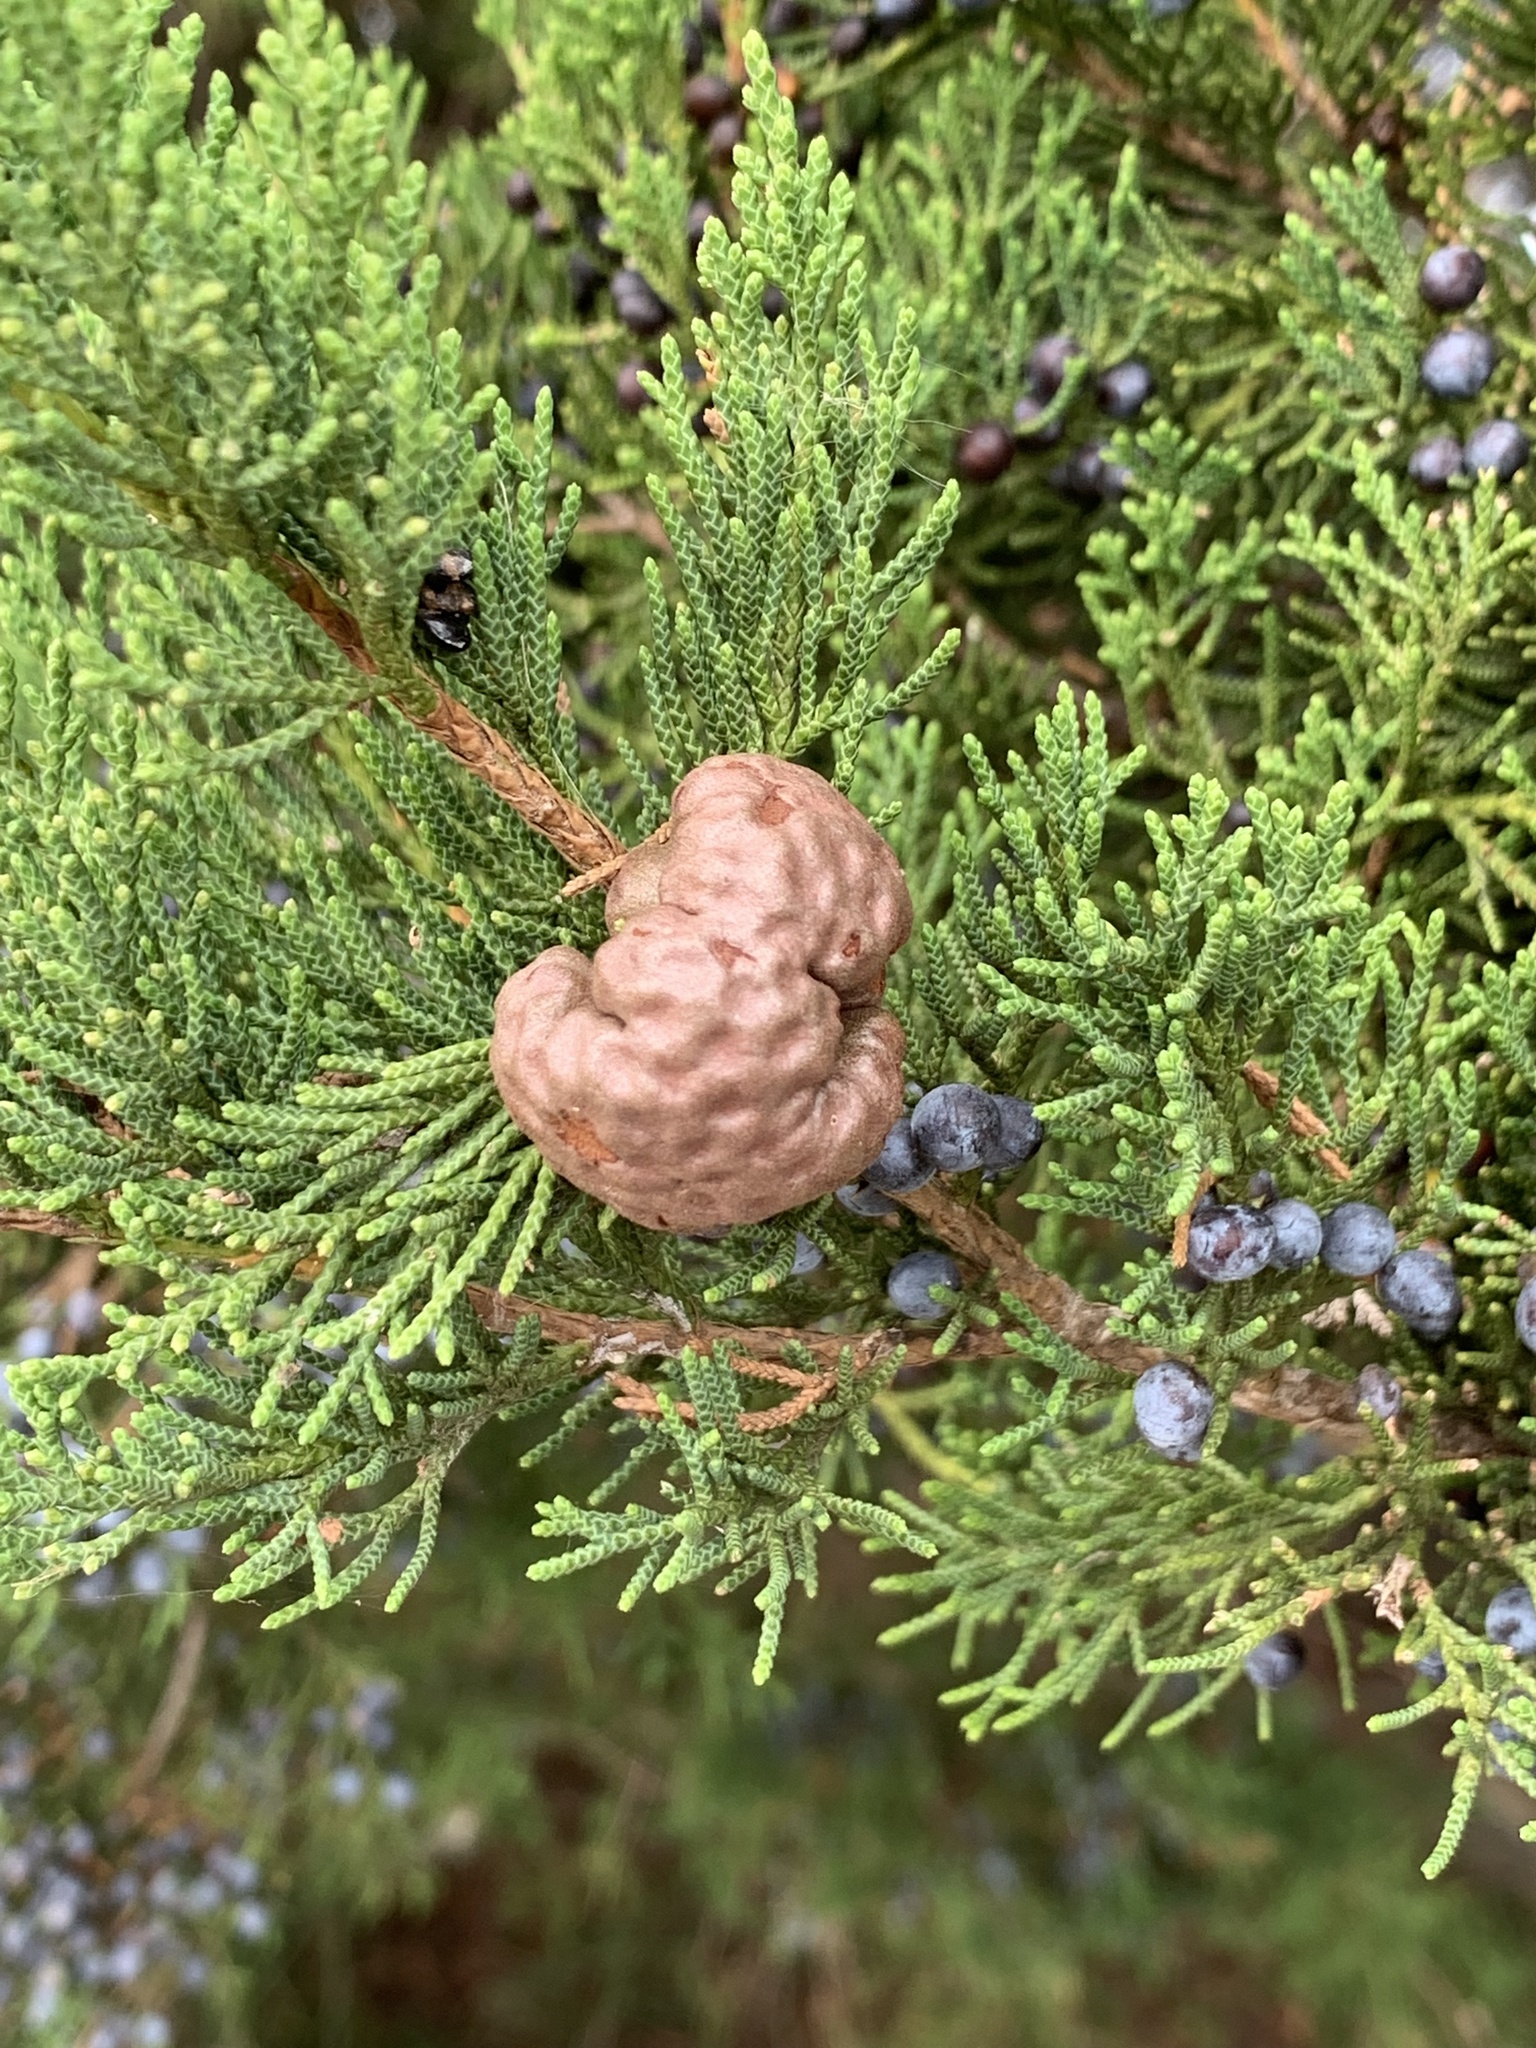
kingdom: Fungi
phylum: Basidiomycota
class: Pucciniomycetes
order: Pucciniales
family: Gymnosporangiaceae
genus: Gymnosporangium
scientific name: Gymnosporangium juniperi-virginianae
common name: Juniper-apple rust
